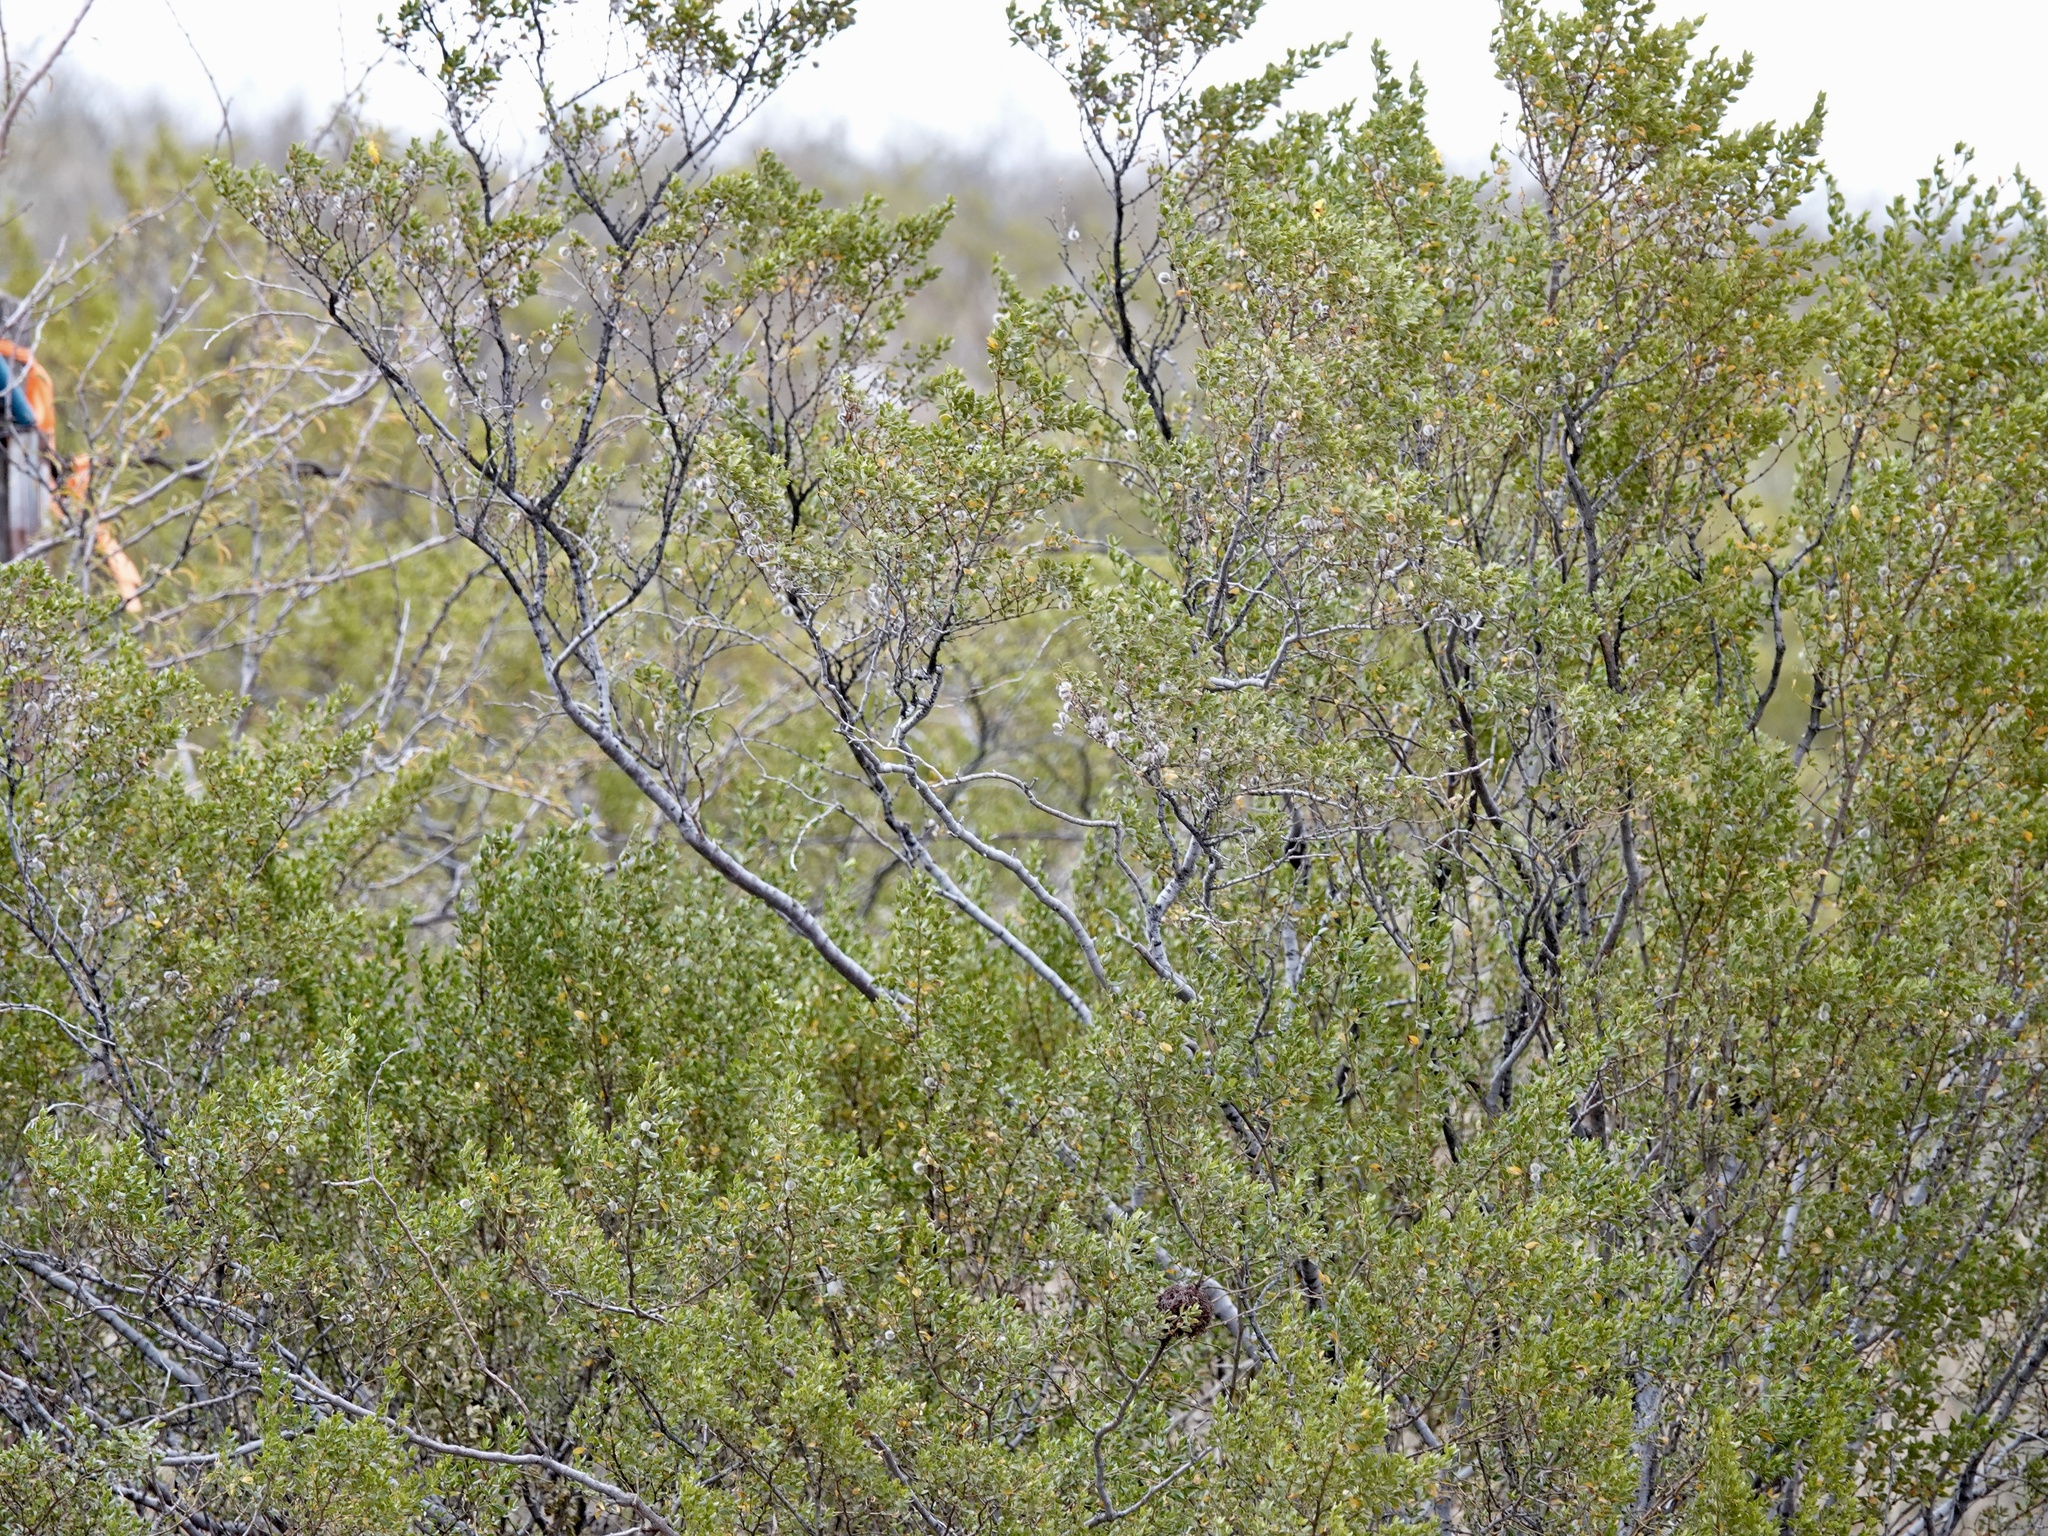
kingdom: Plantae
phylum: Tracheophyta
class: Magnoliopsida
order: Zygophyllales
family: Zygophyllaceae
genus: Larrea
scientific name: Larrea tridentata
